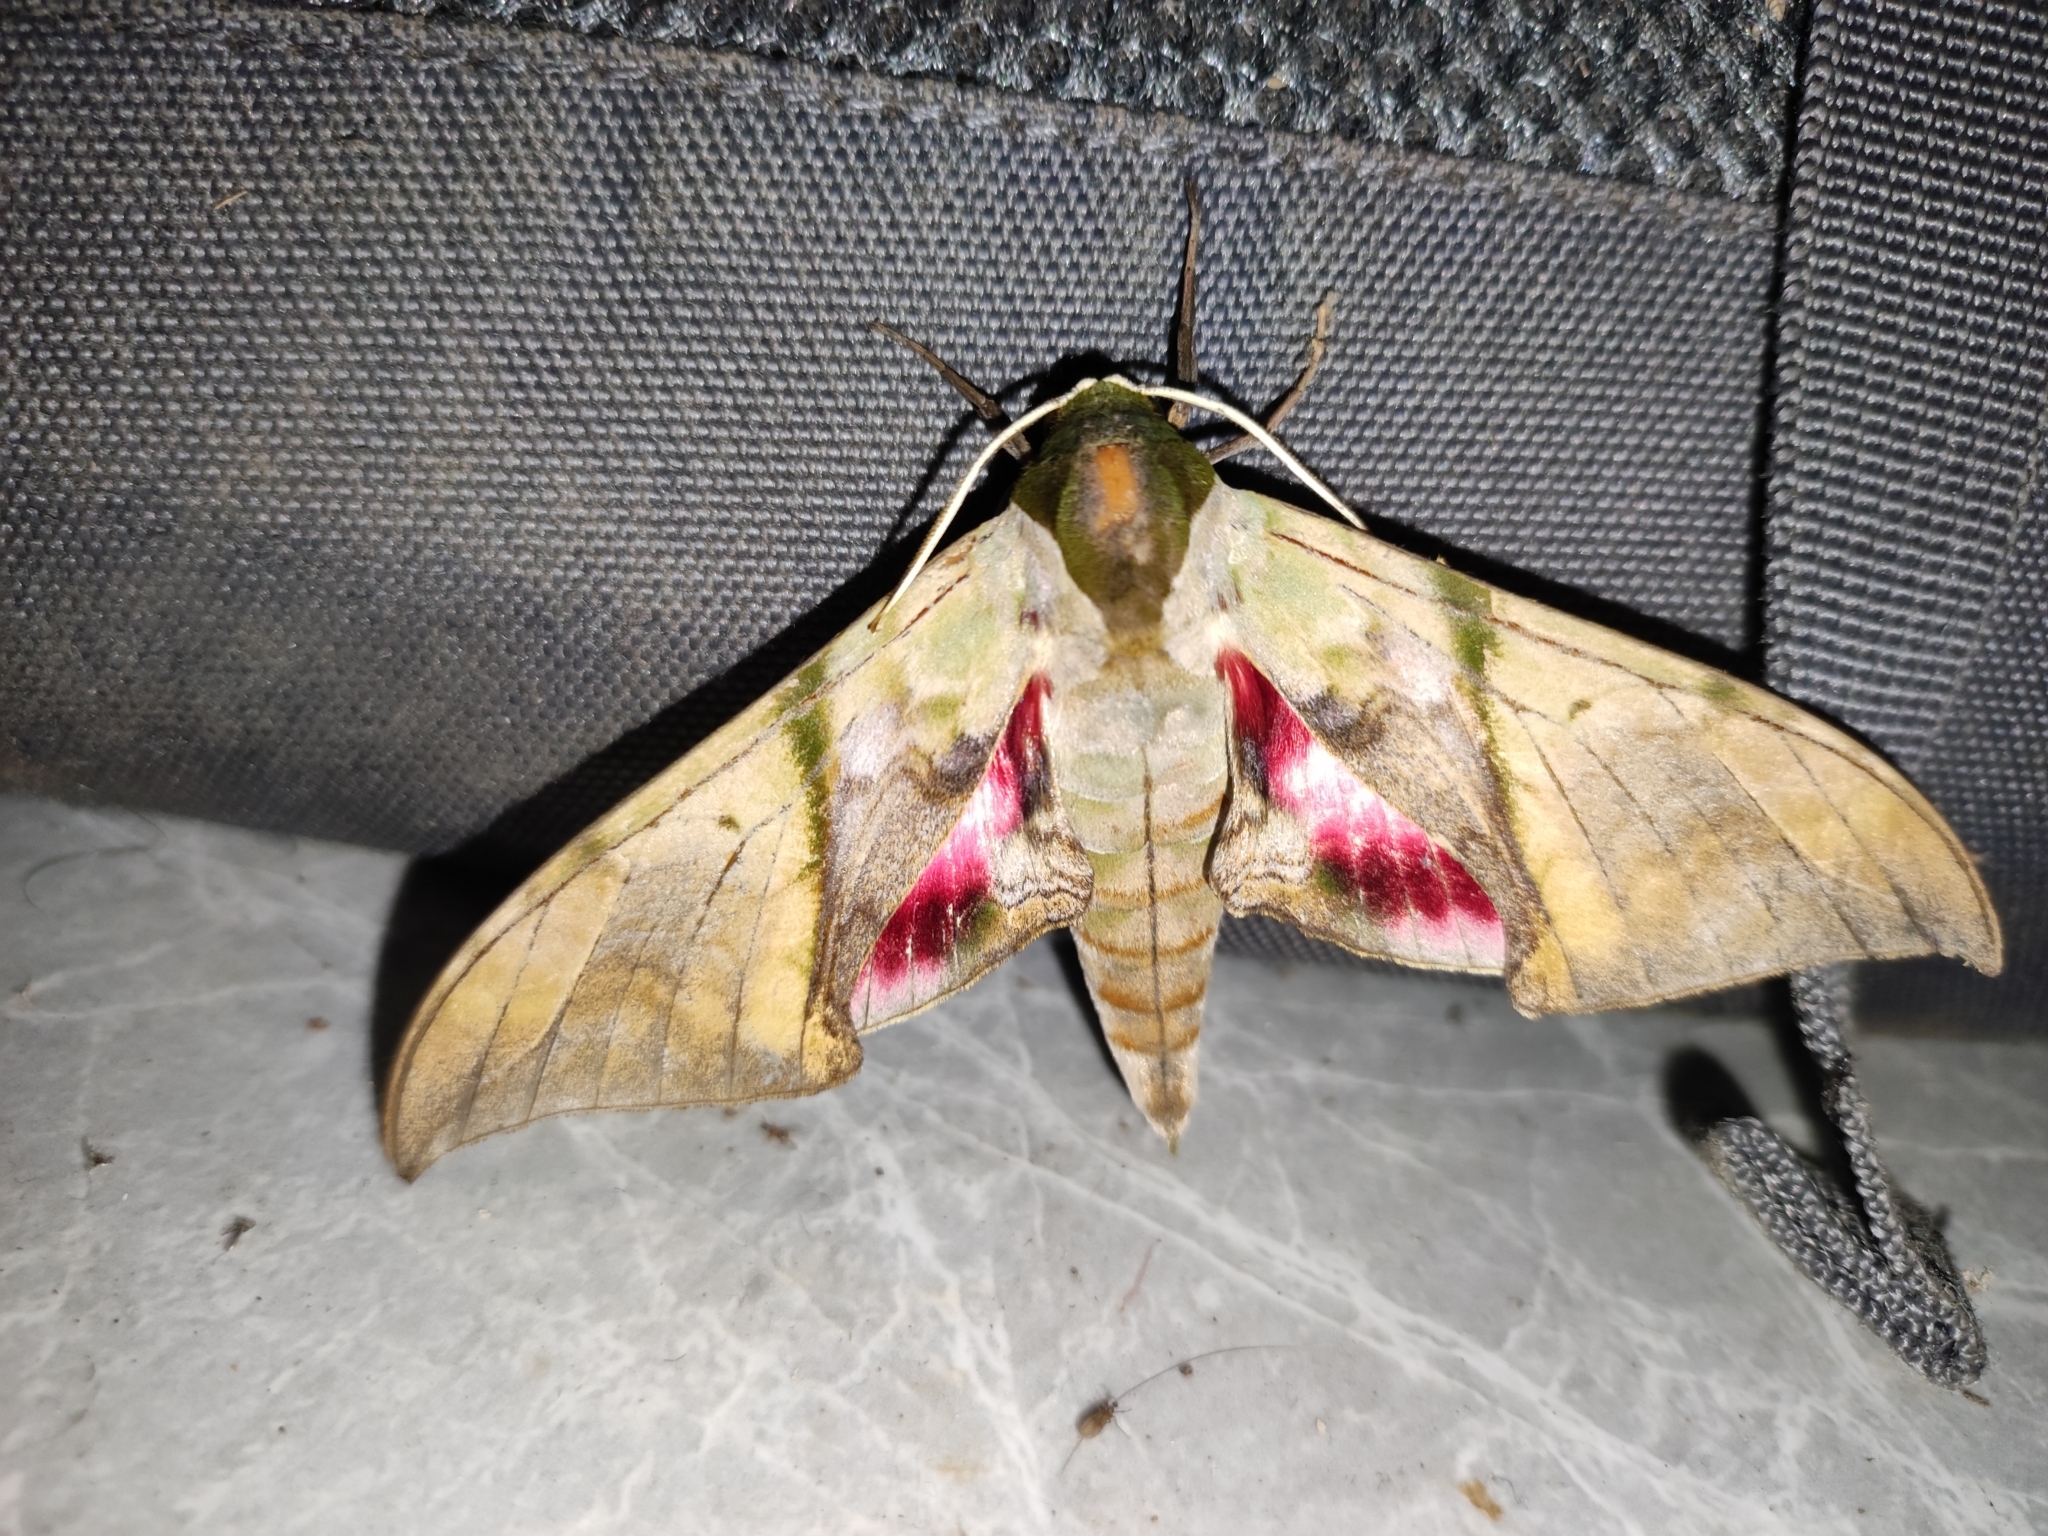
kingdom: Animalia
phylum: Arthropoda
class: Insecta
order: Lepidoptera
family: Sphingidae
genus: Callambulyx
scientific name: Callambulyx rubricosa
